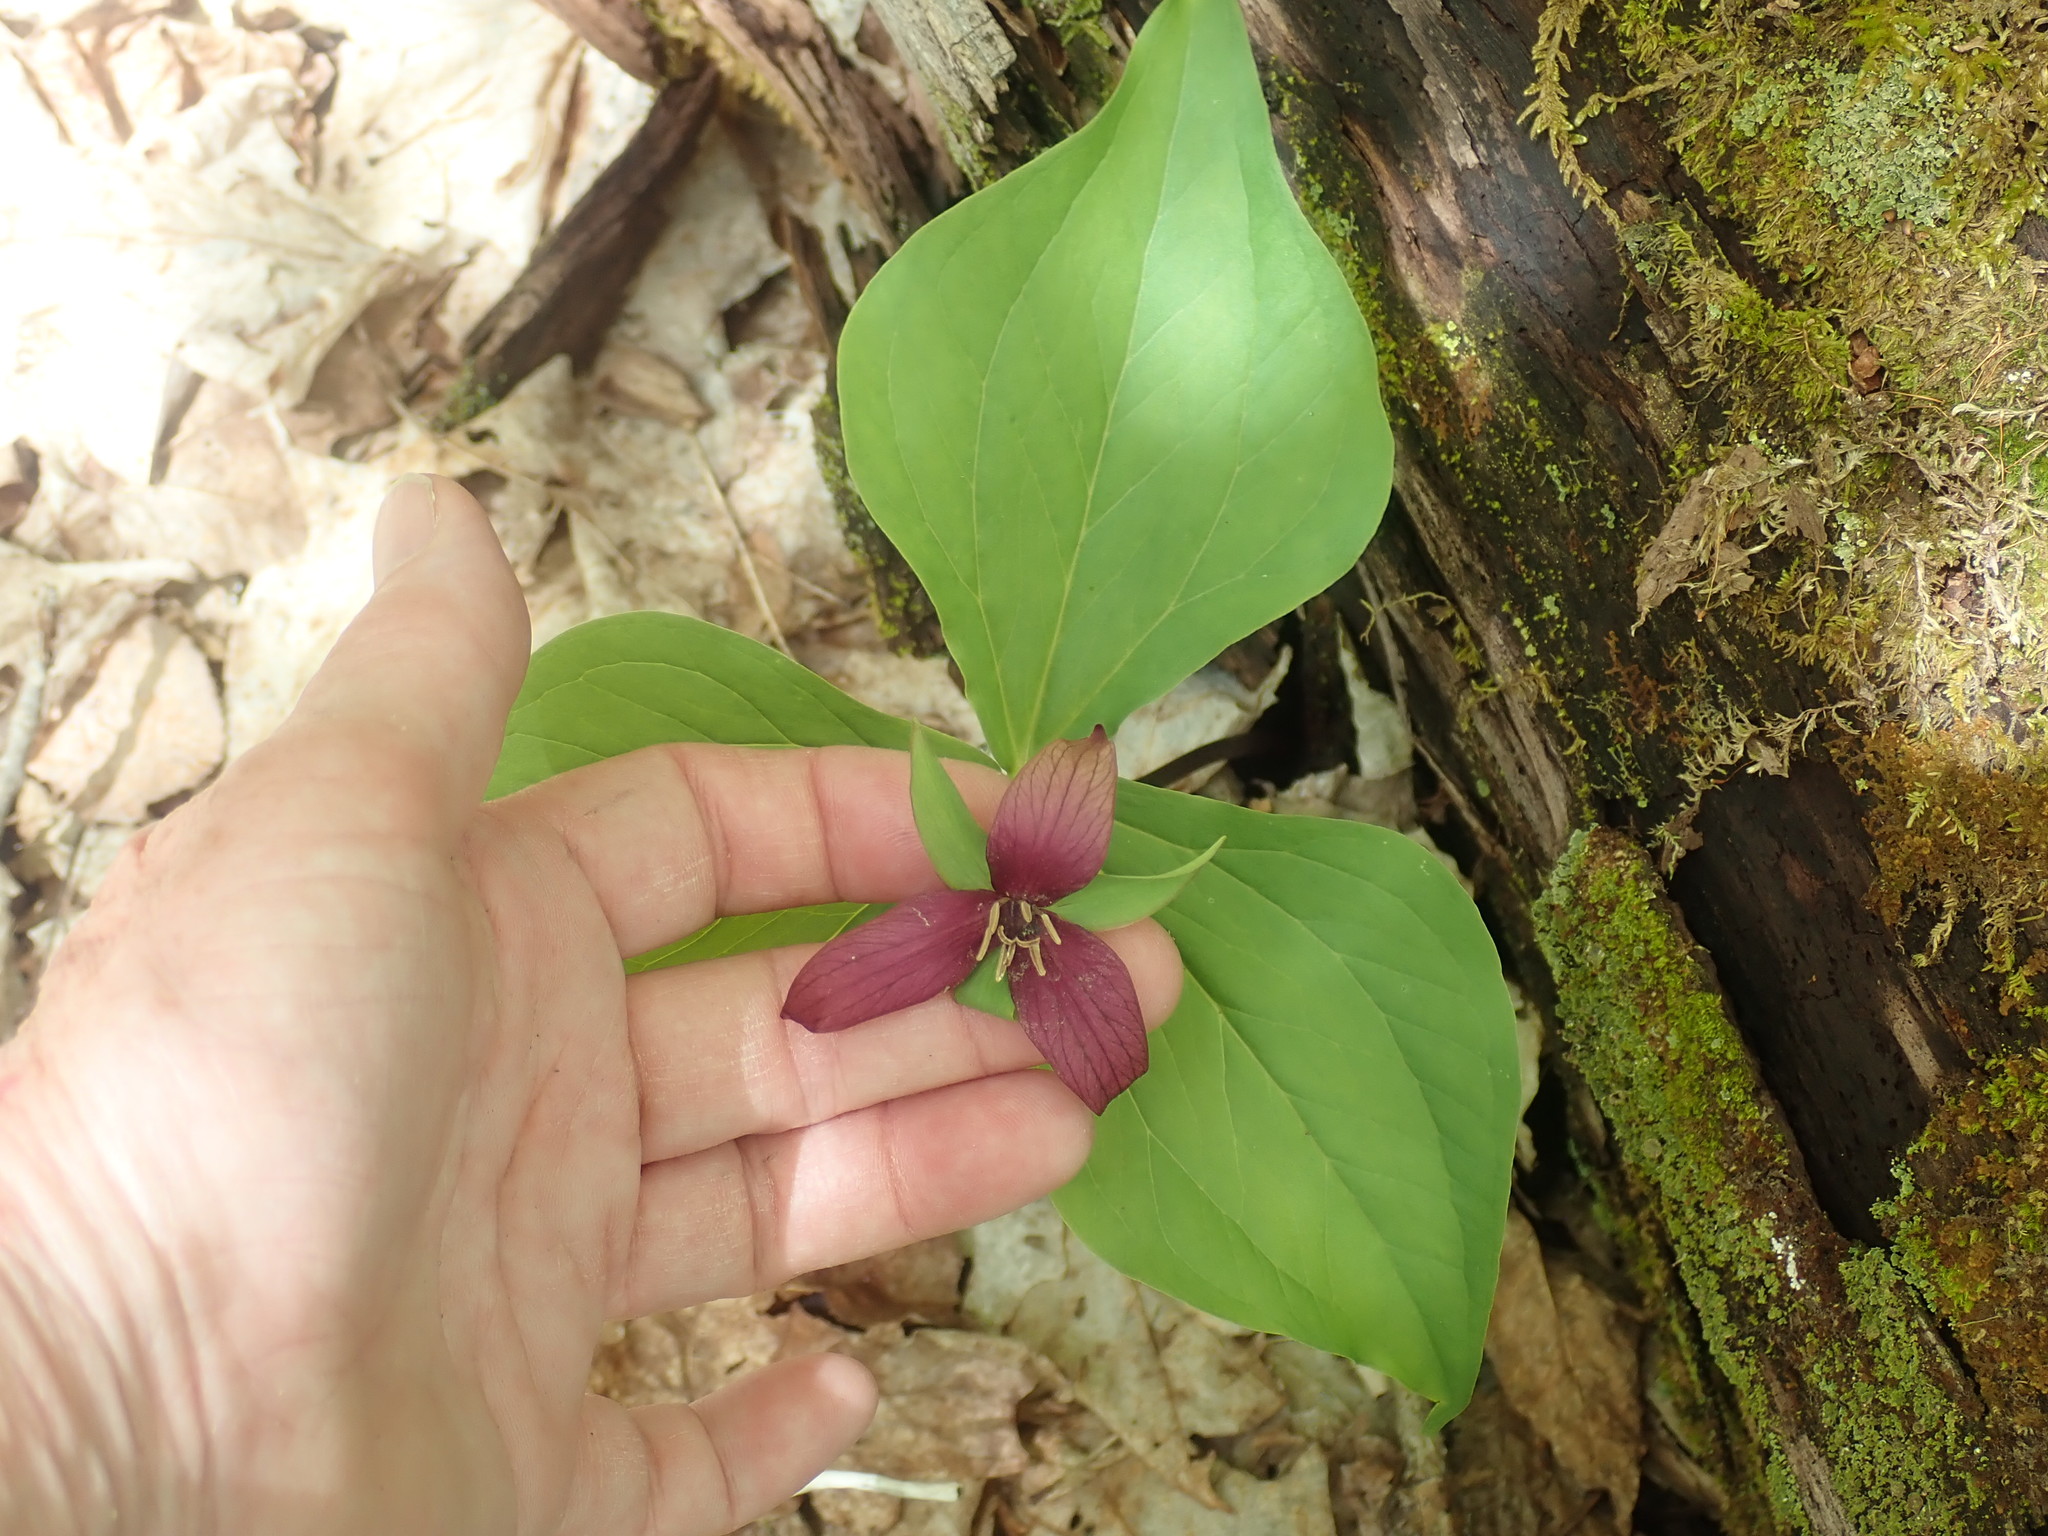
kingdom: Plantae
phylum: Tracheophyta
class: Liliopsida
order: Liliales
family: Melanthiaceae
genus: Trillium
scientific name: Trillium erectum
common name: Purple trillium
